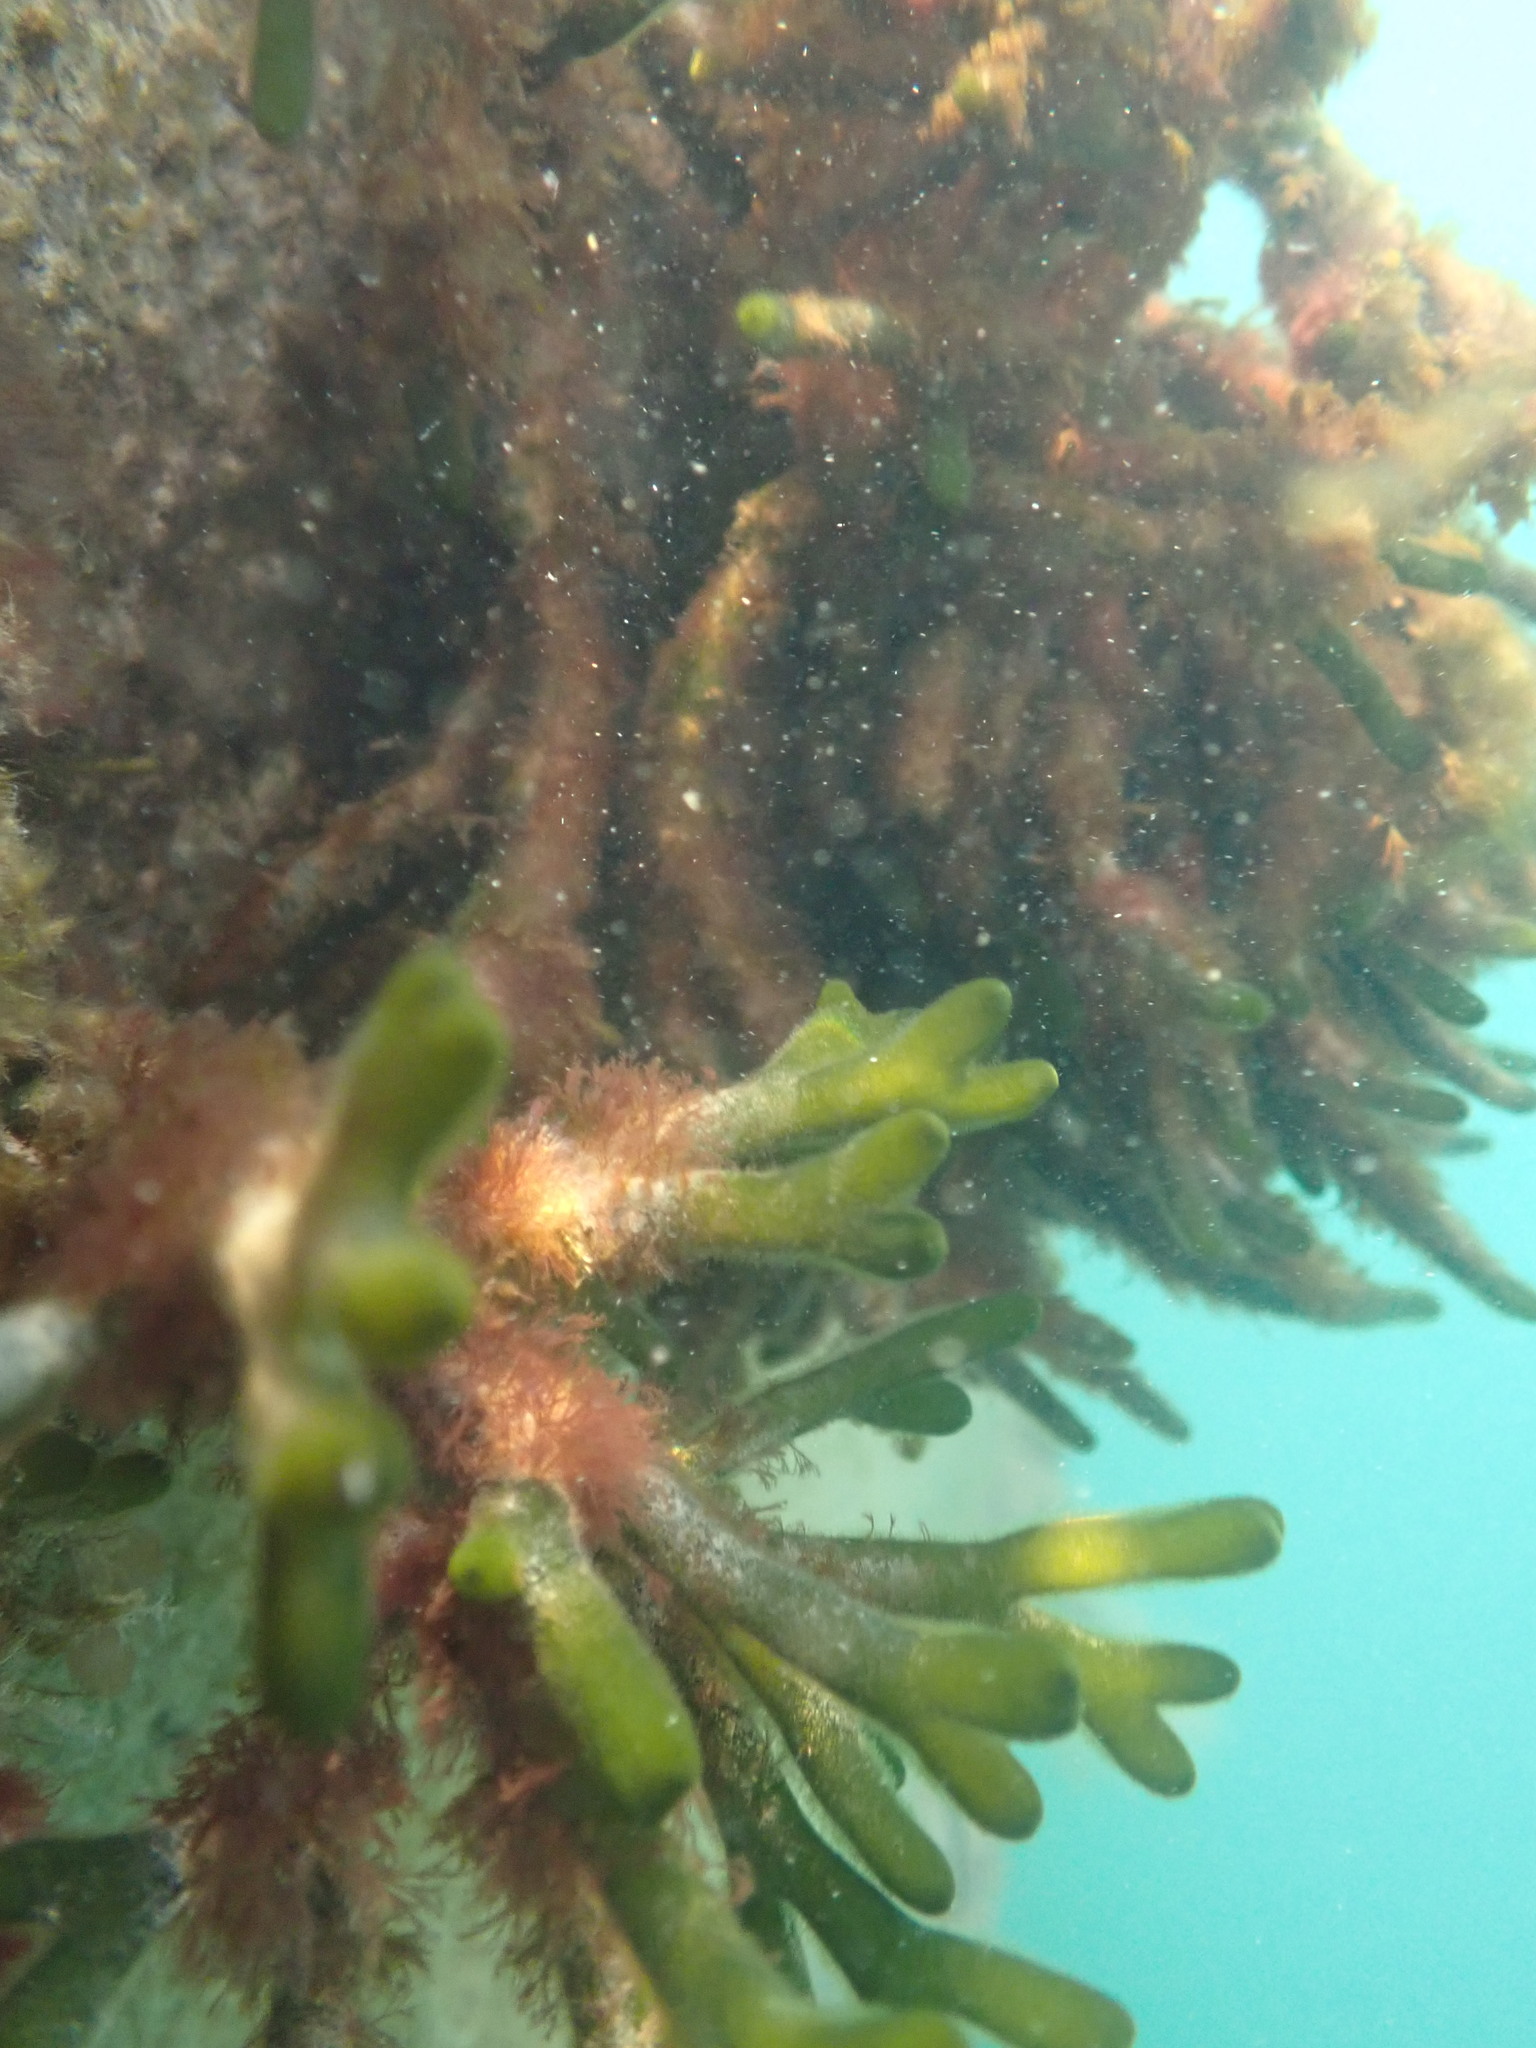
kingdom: Plantae
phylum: Chlorophyta
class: Ulvophyceae
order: Bryopsidales
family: Codiaceae
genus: Codium
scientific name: Codium fragile
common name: Dead man's fingers
